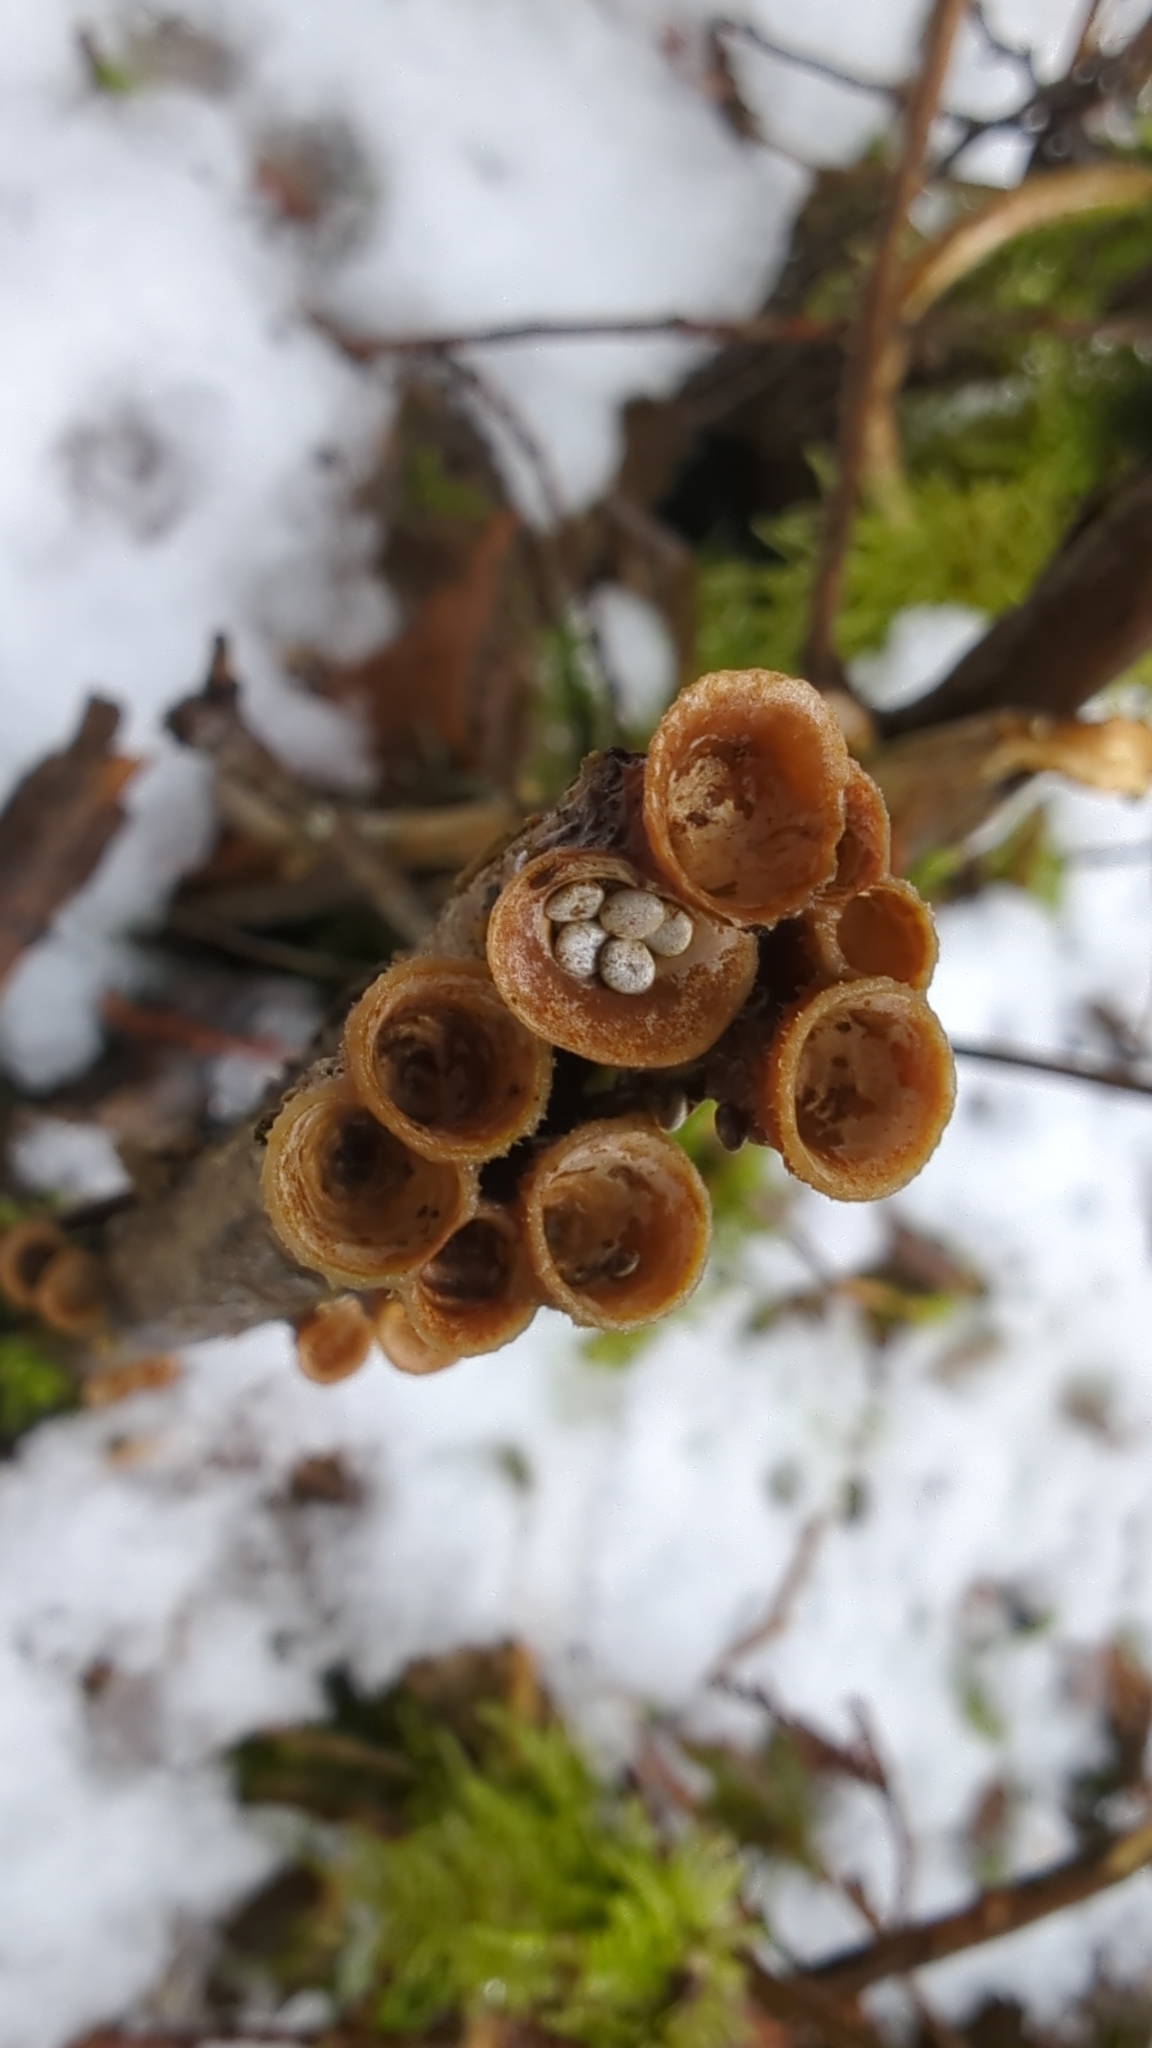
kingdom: Fungi
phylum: Basidiomycota
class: Agaricomycetes
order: Agaricales
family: Nidulariaceae
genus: Crucibulum
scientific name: Crucibulum laeve
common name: Common bird's nest
